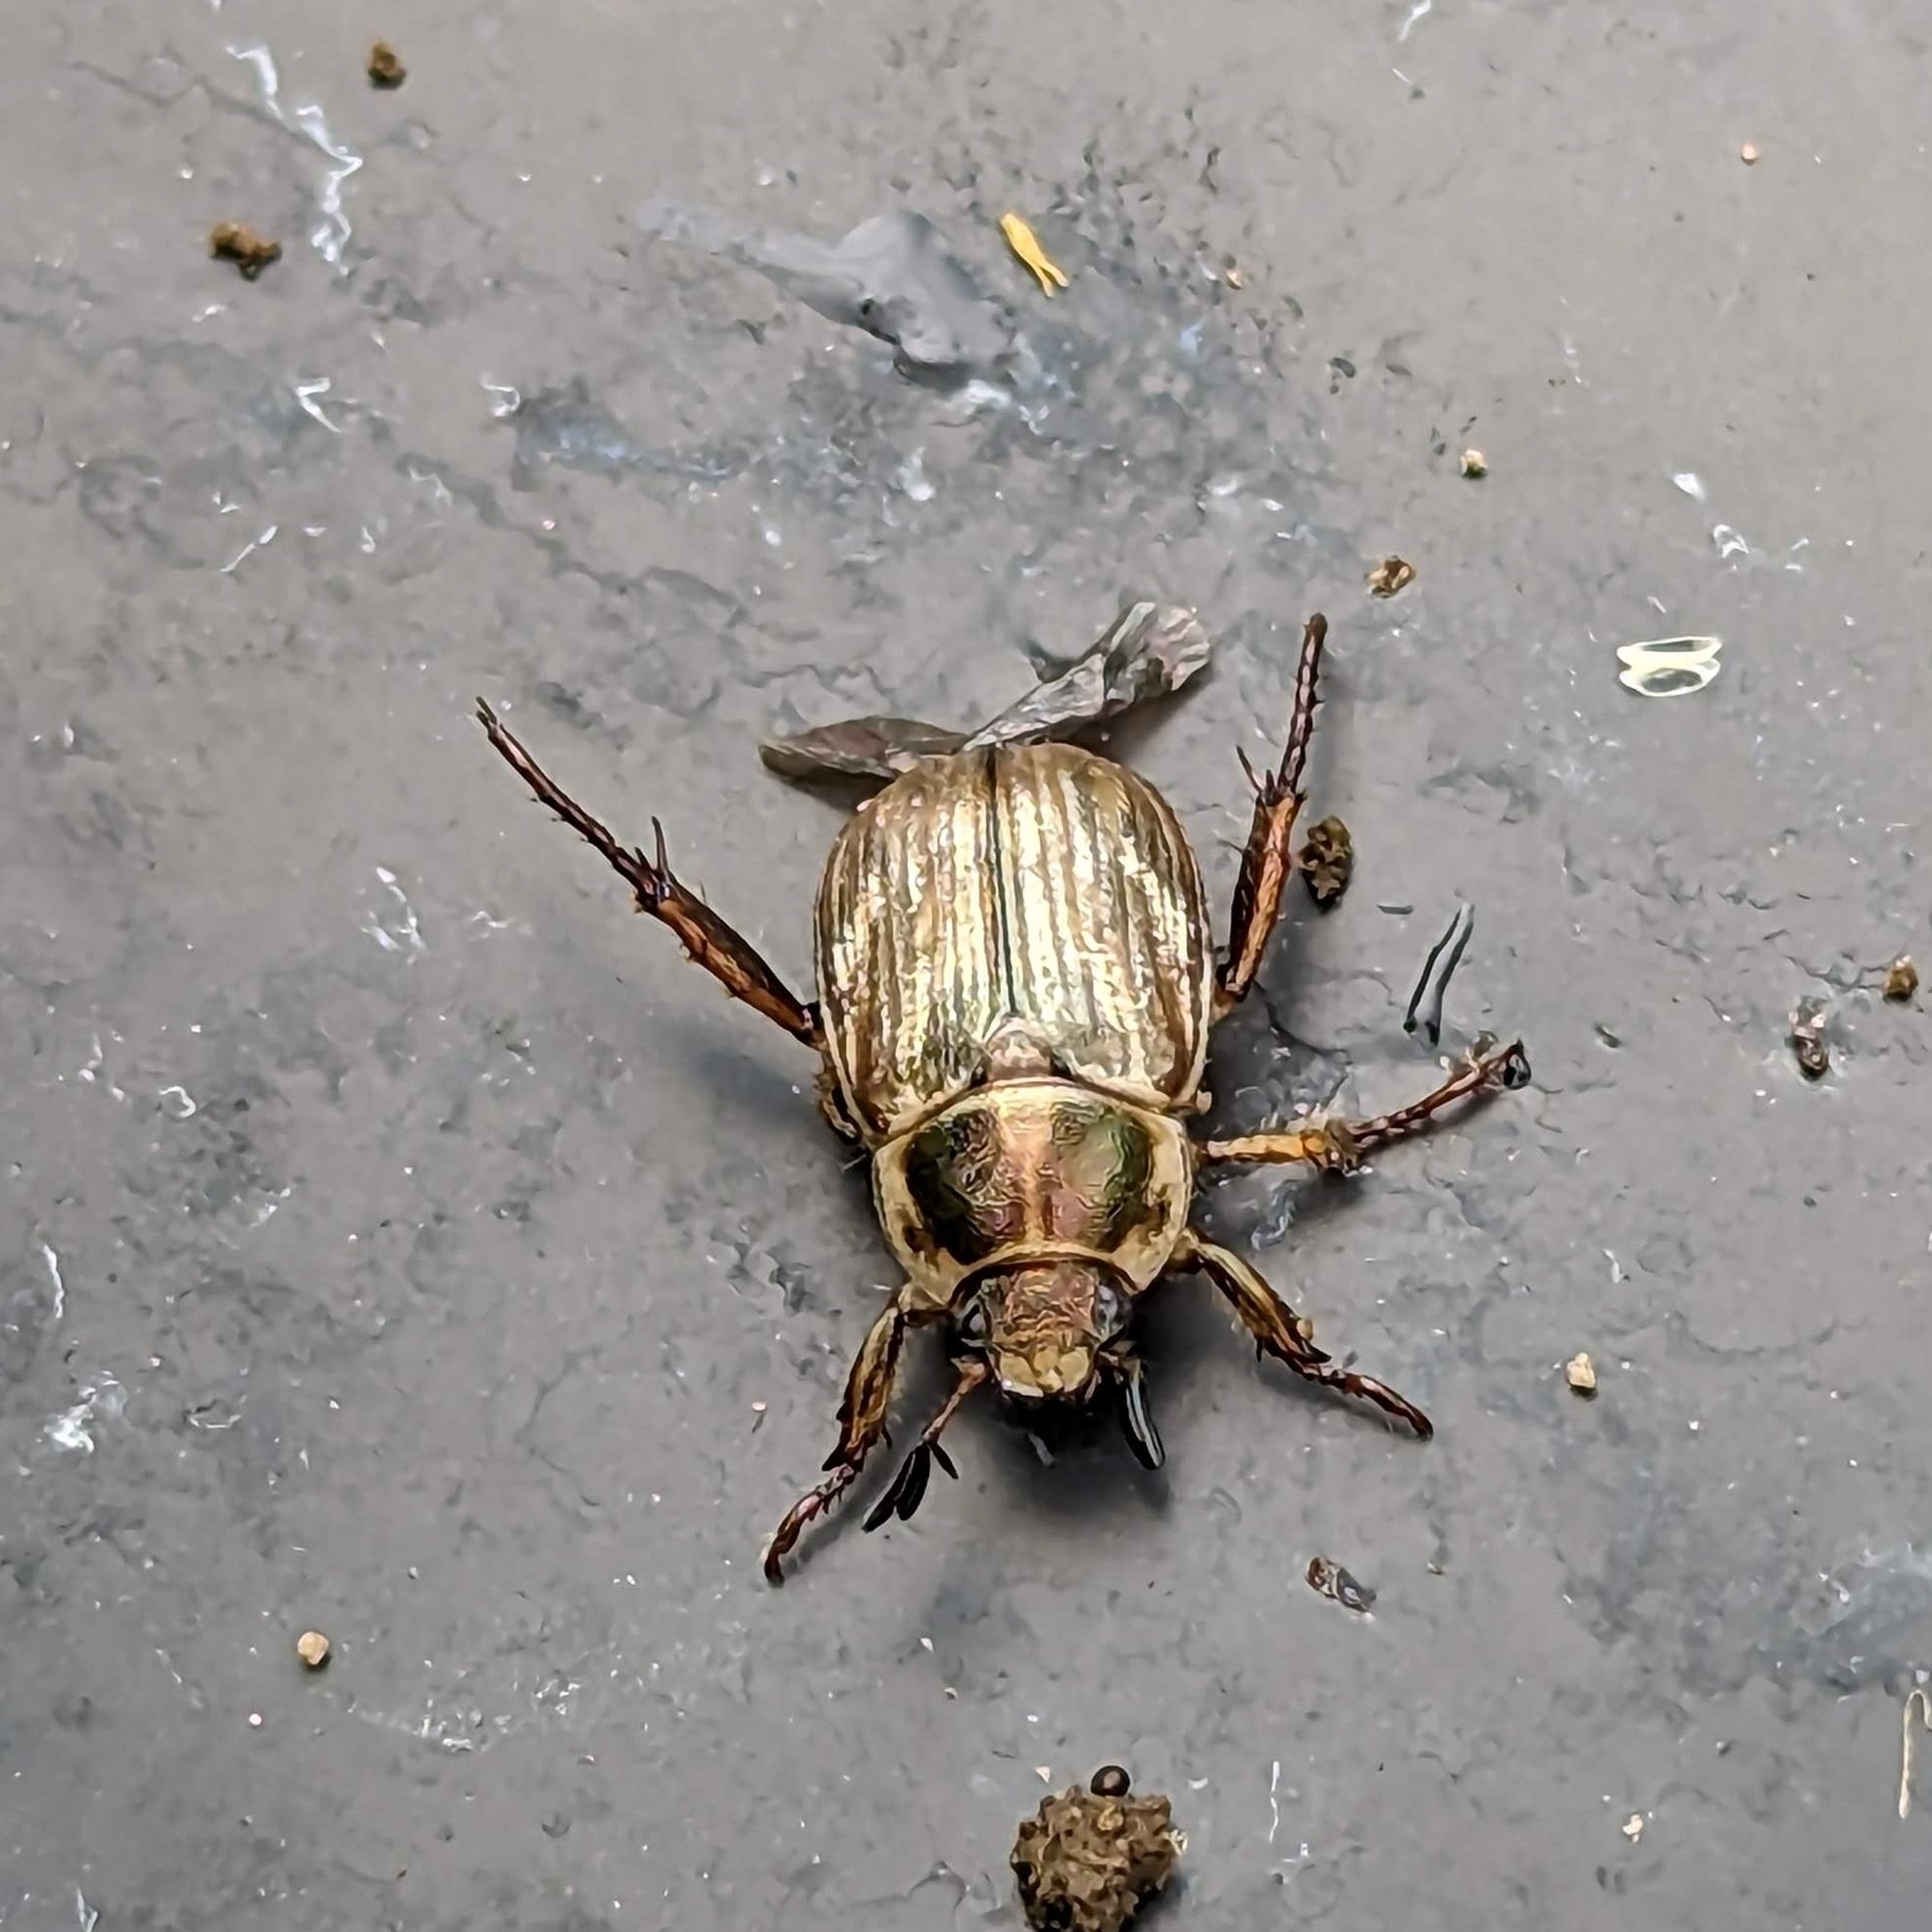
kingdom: Animalia
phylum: Arthropoda
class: Insecta
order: Coleoptera
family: Scarabaeidae
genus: Exomala
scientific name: Exomala orientalis
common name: Oriental beetle
